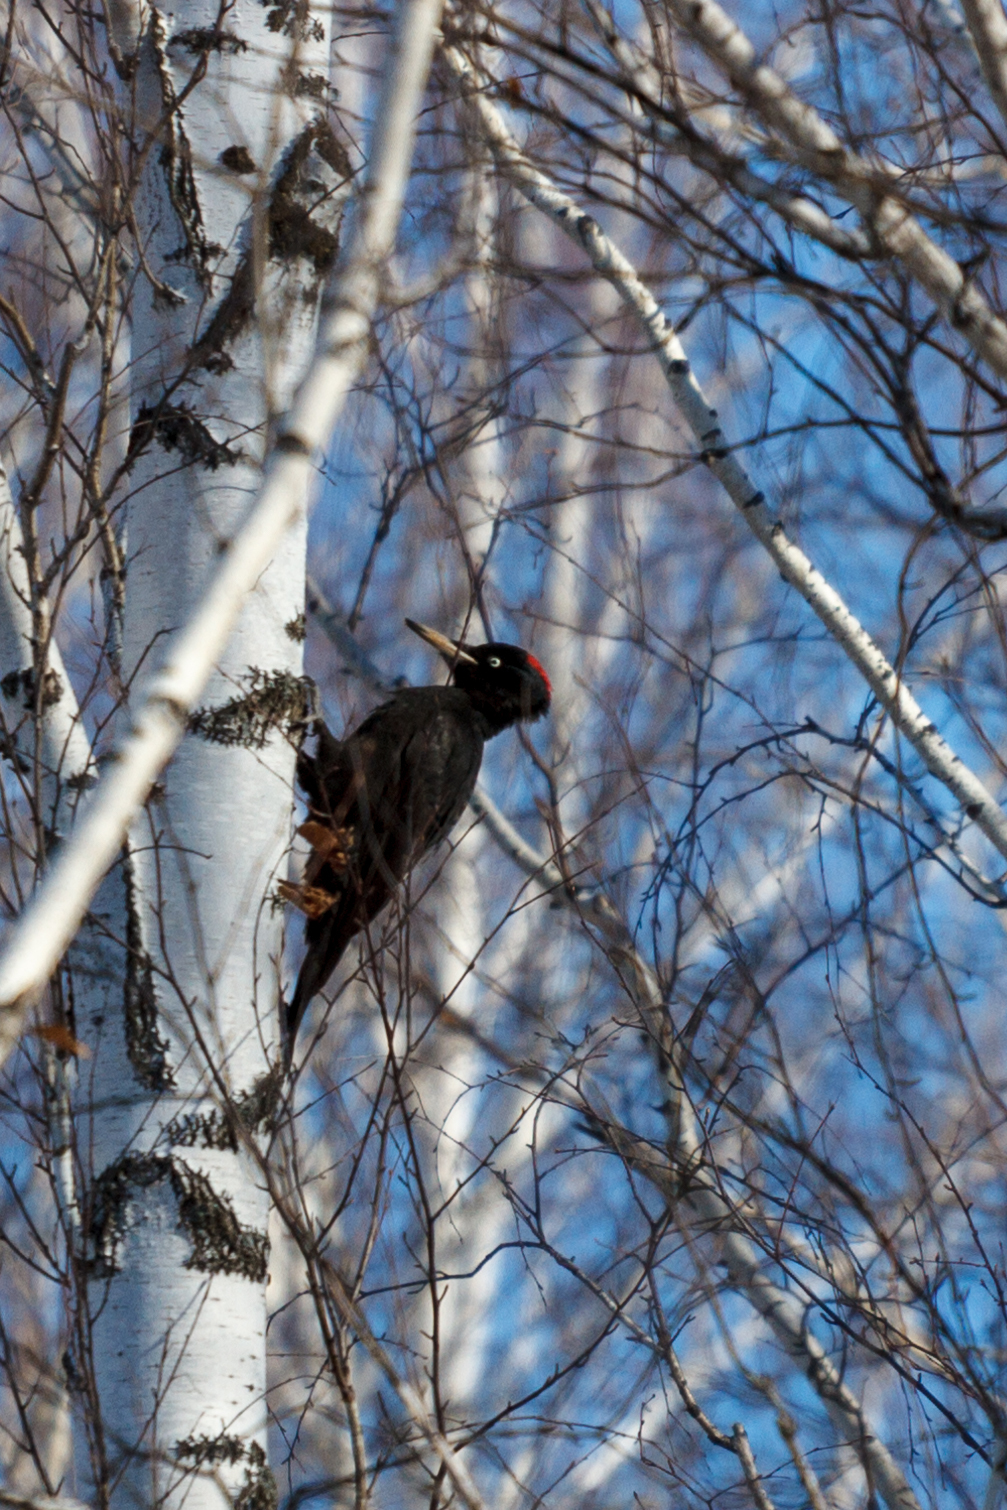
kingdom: Animalia
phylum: Chordata
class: Aves
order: Piciformes
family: Picidae
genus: Dryocopus
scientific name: Dryocopus martius
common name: Black woodpecker
